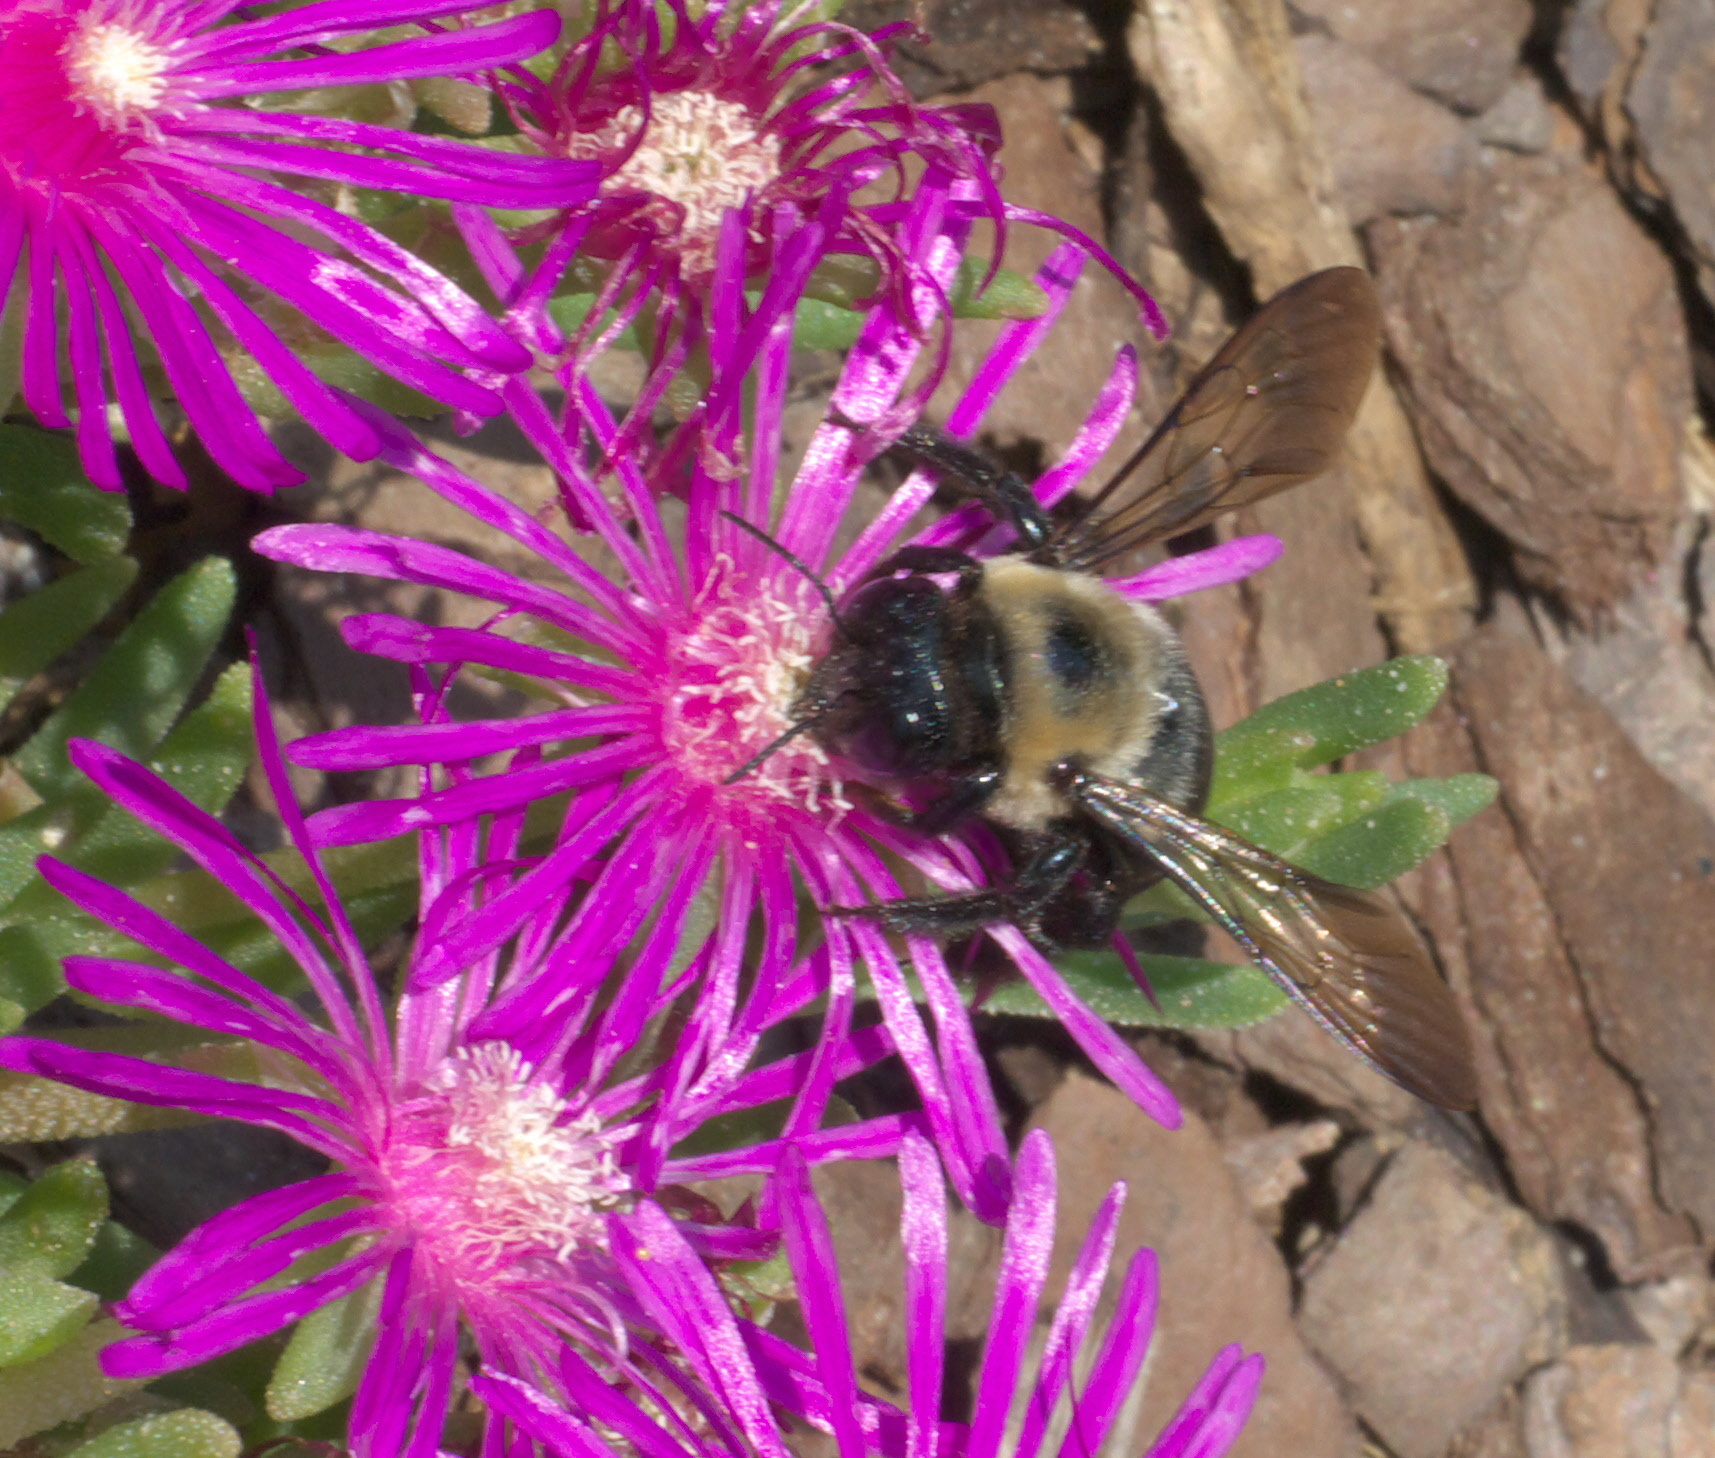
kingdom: Animalia
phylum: Arthropoda
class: Insecta
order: Hymenoptera
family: Apidae
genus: Xylocopa
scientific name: Xylocopa virginica
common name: Carpenter bee
